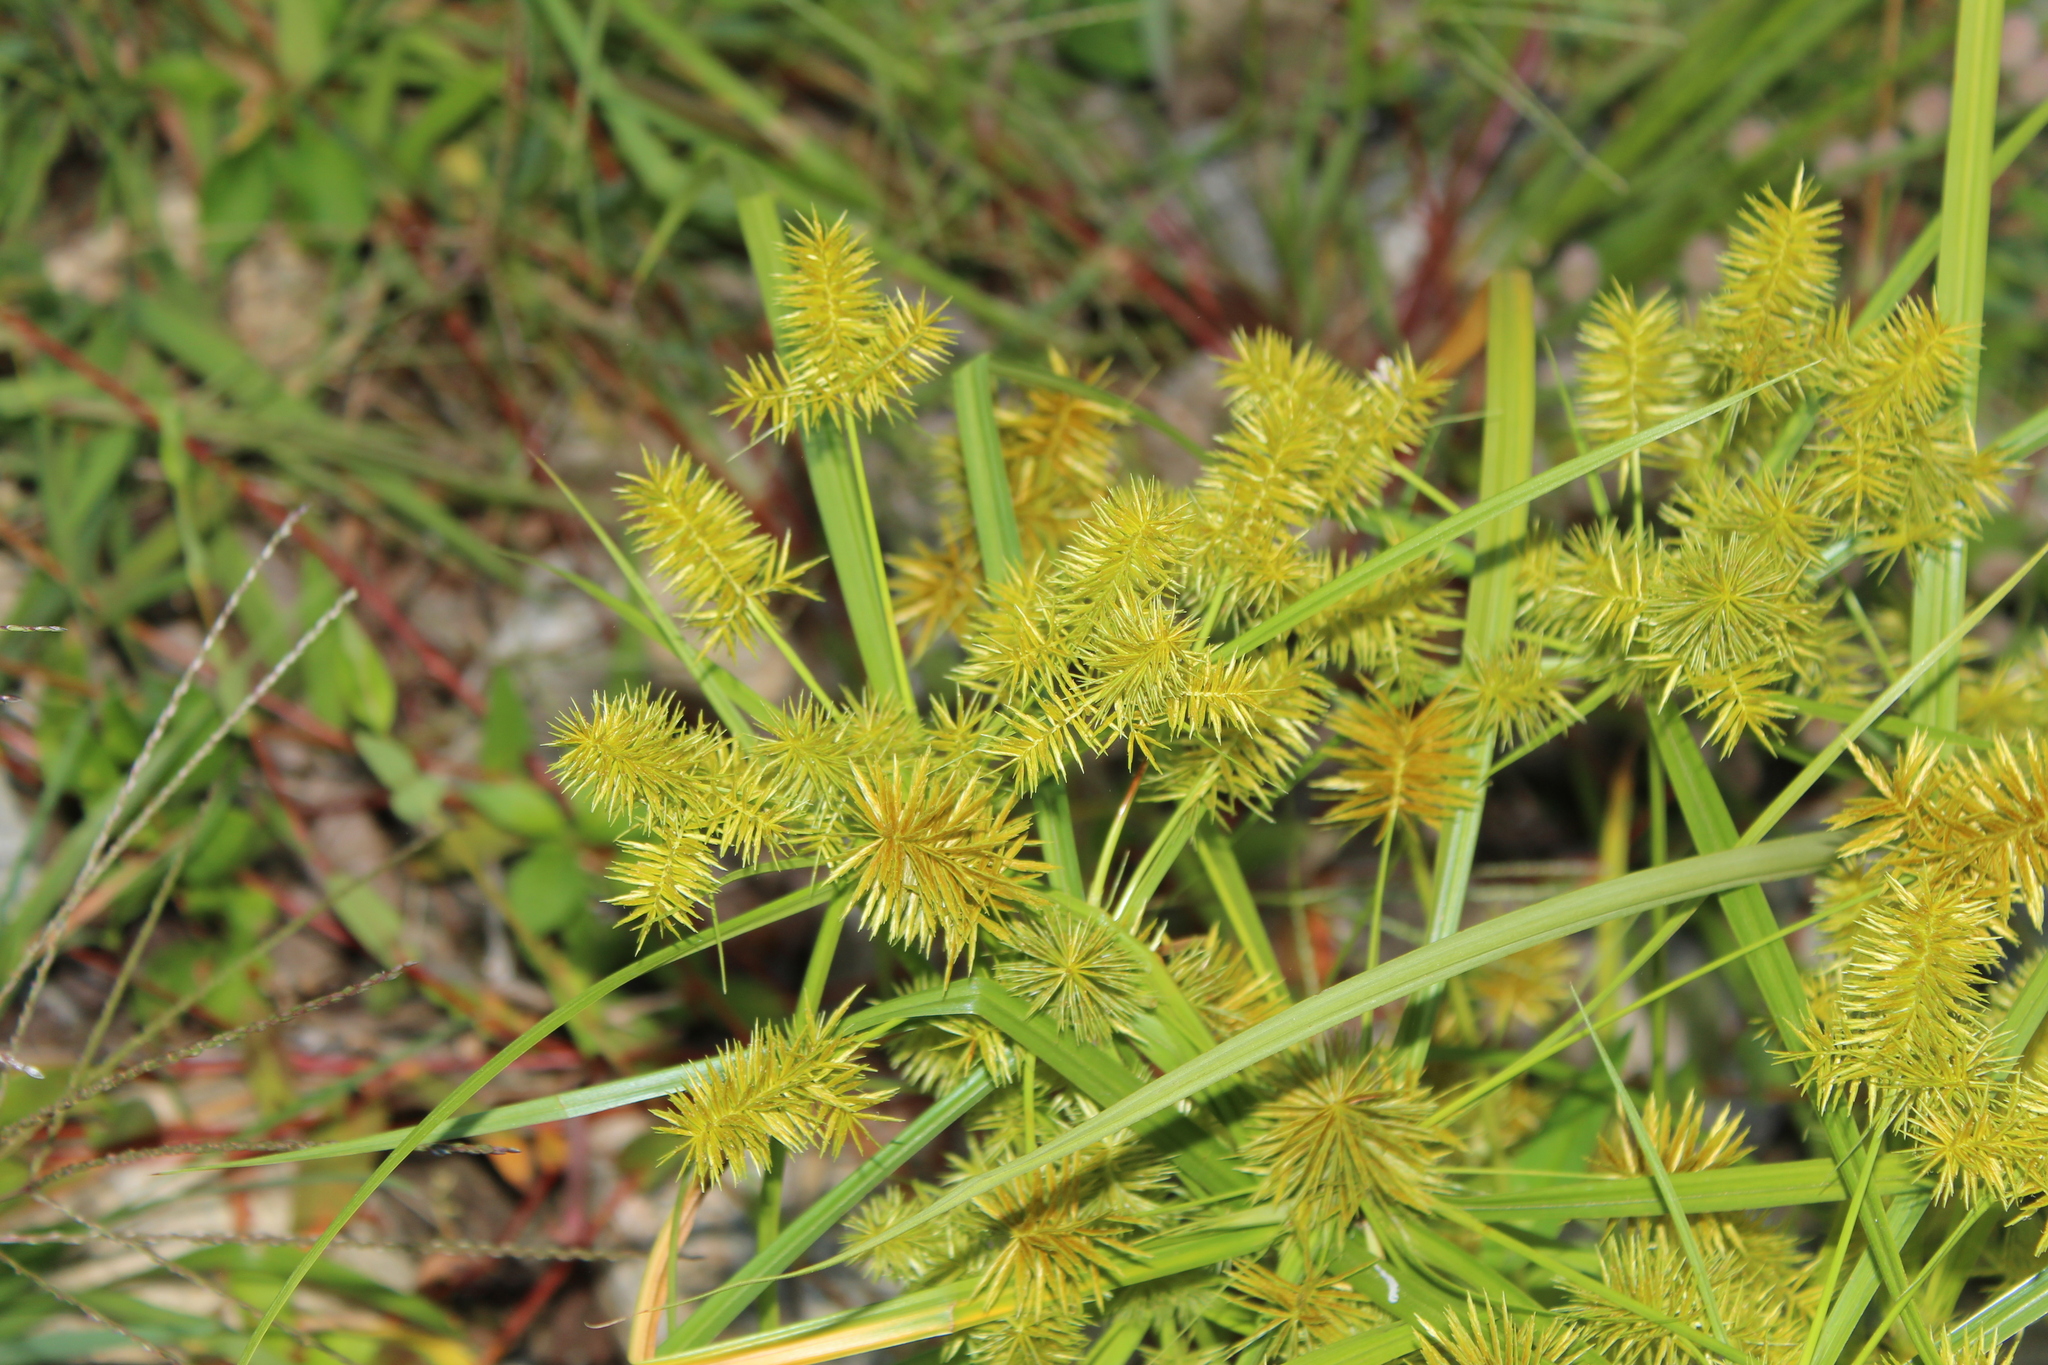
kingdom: Plantae
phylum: Tracheophyta
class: Liliopsida
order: Poales
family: Cyperaceae
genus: Cyperus
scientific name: Cyperus strigosus
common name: False nutsedge
